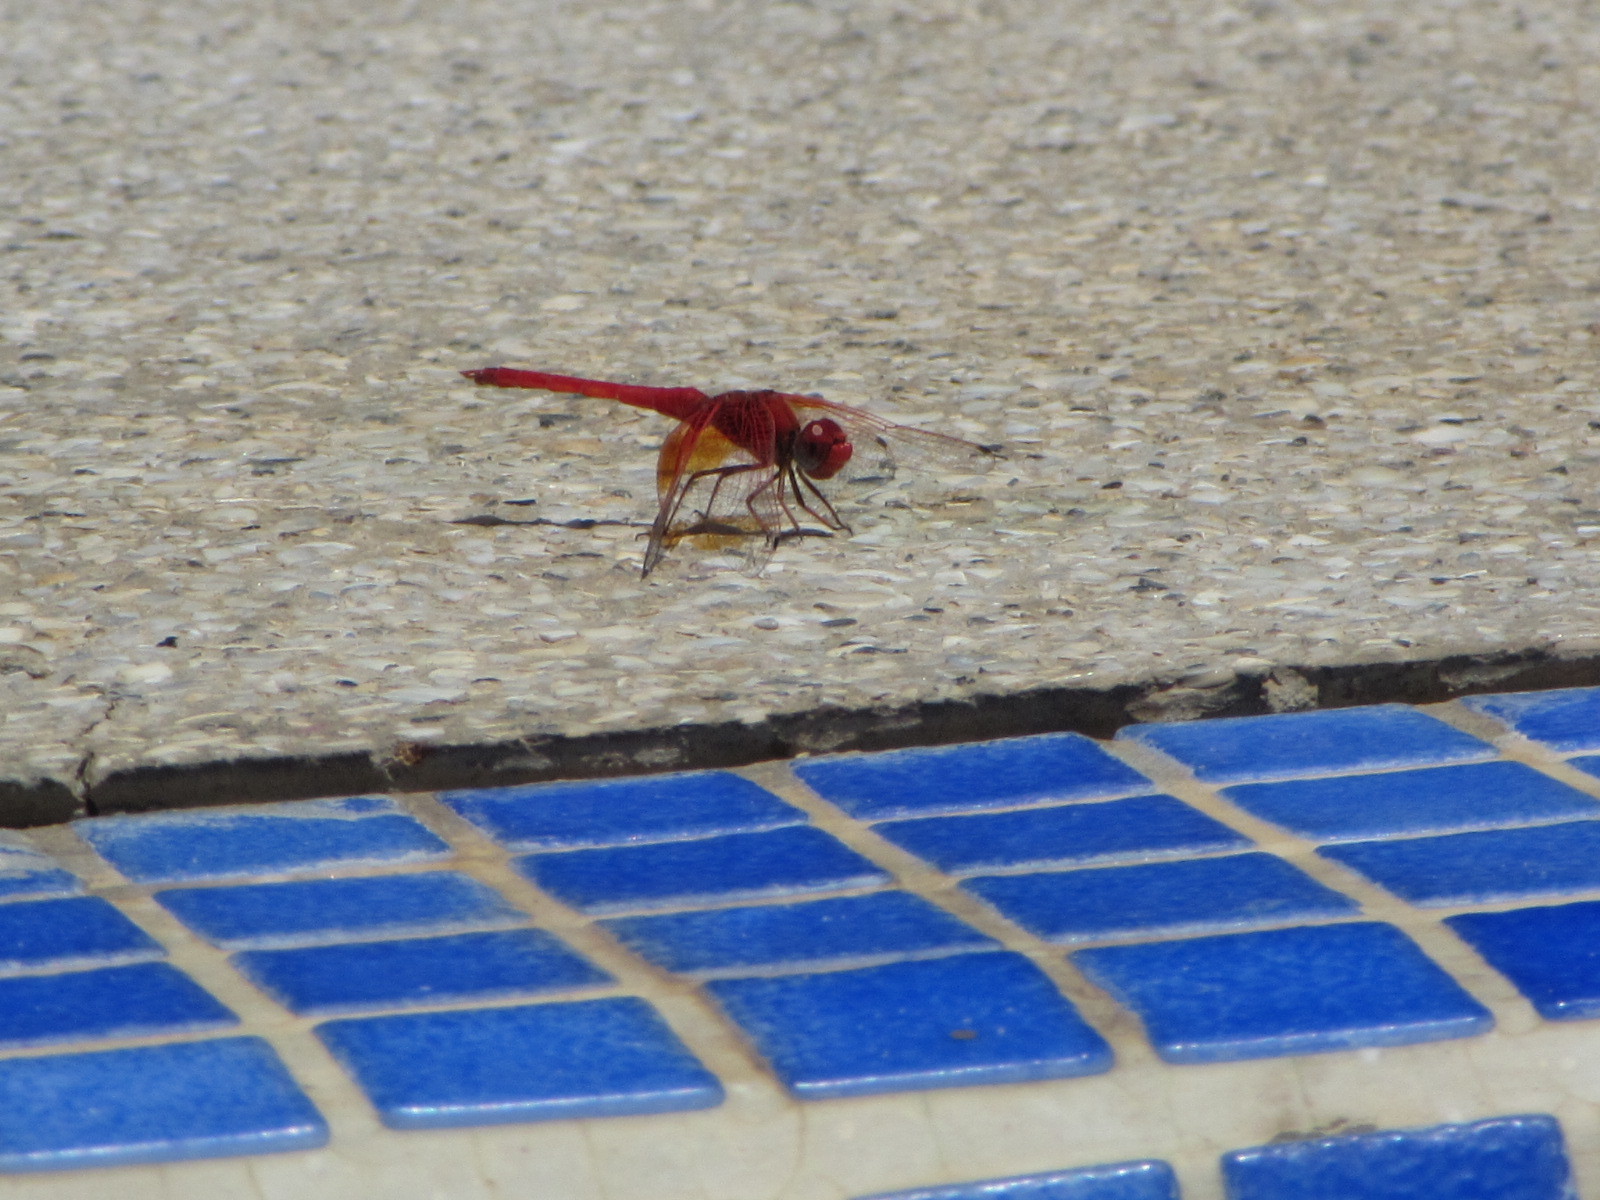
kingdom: Animalia
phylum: Arthropoda
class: Insecta
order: Odonata
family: Libellulidae
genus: Trithemis
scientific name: Trithemis kirbyi
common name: Kirby's dropwing
